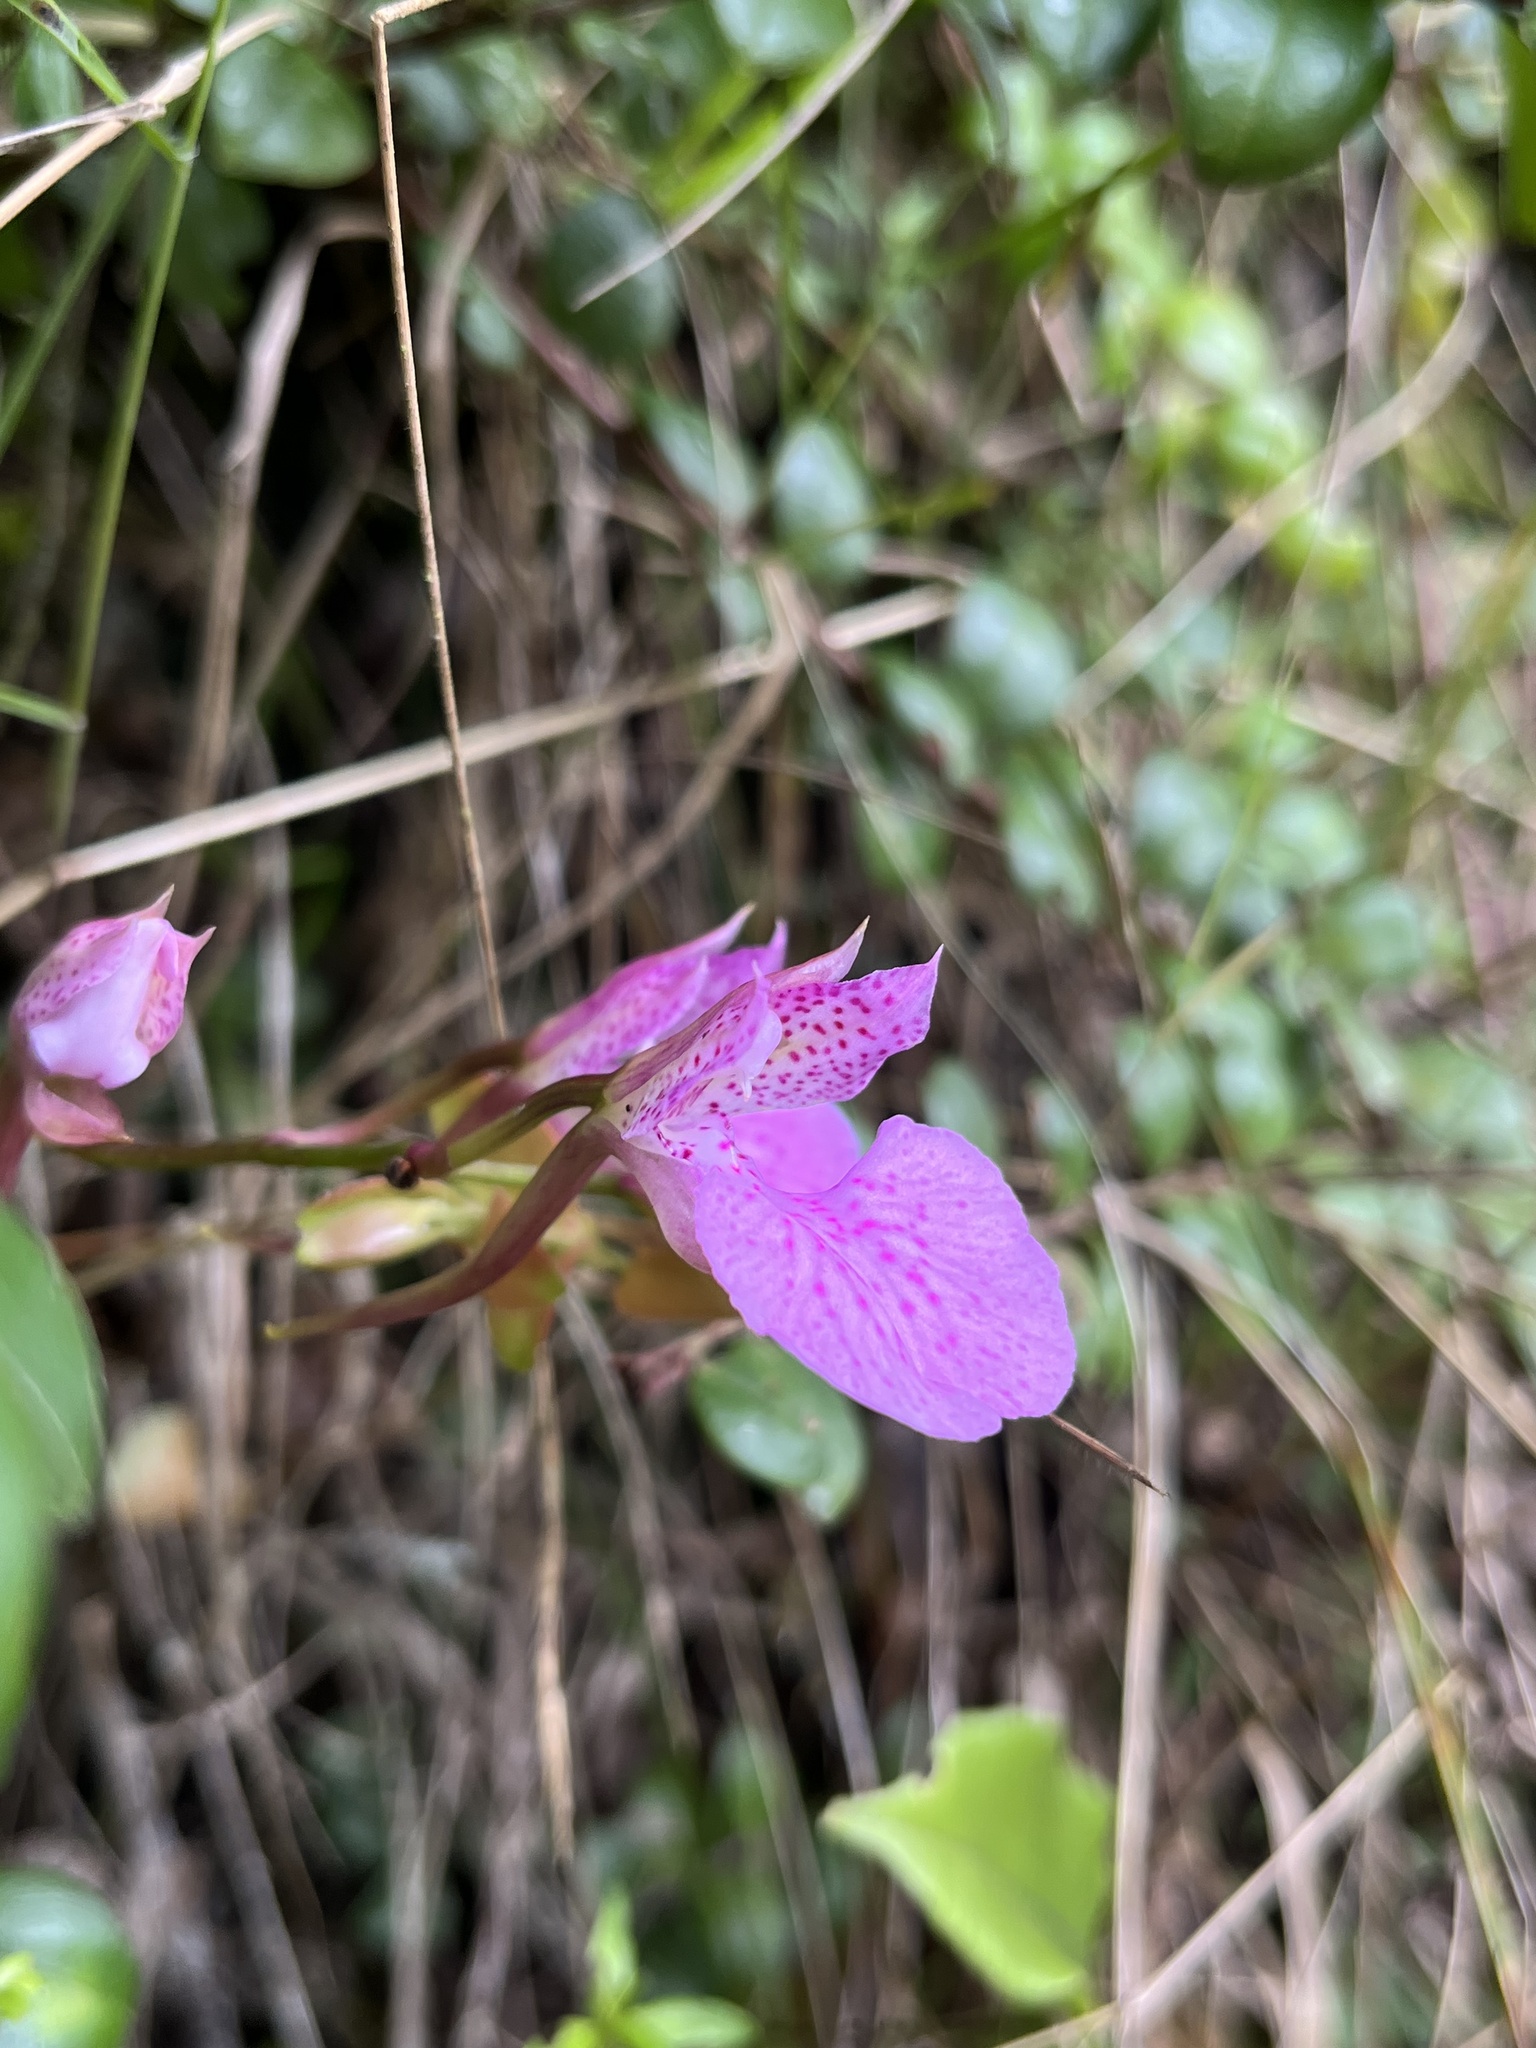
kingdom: Plantae
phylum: Tracheophyta
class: Liliopsida
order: Asparagales
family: Orchidaceae
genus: Comparettia
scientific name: Comparettia macroplectron
